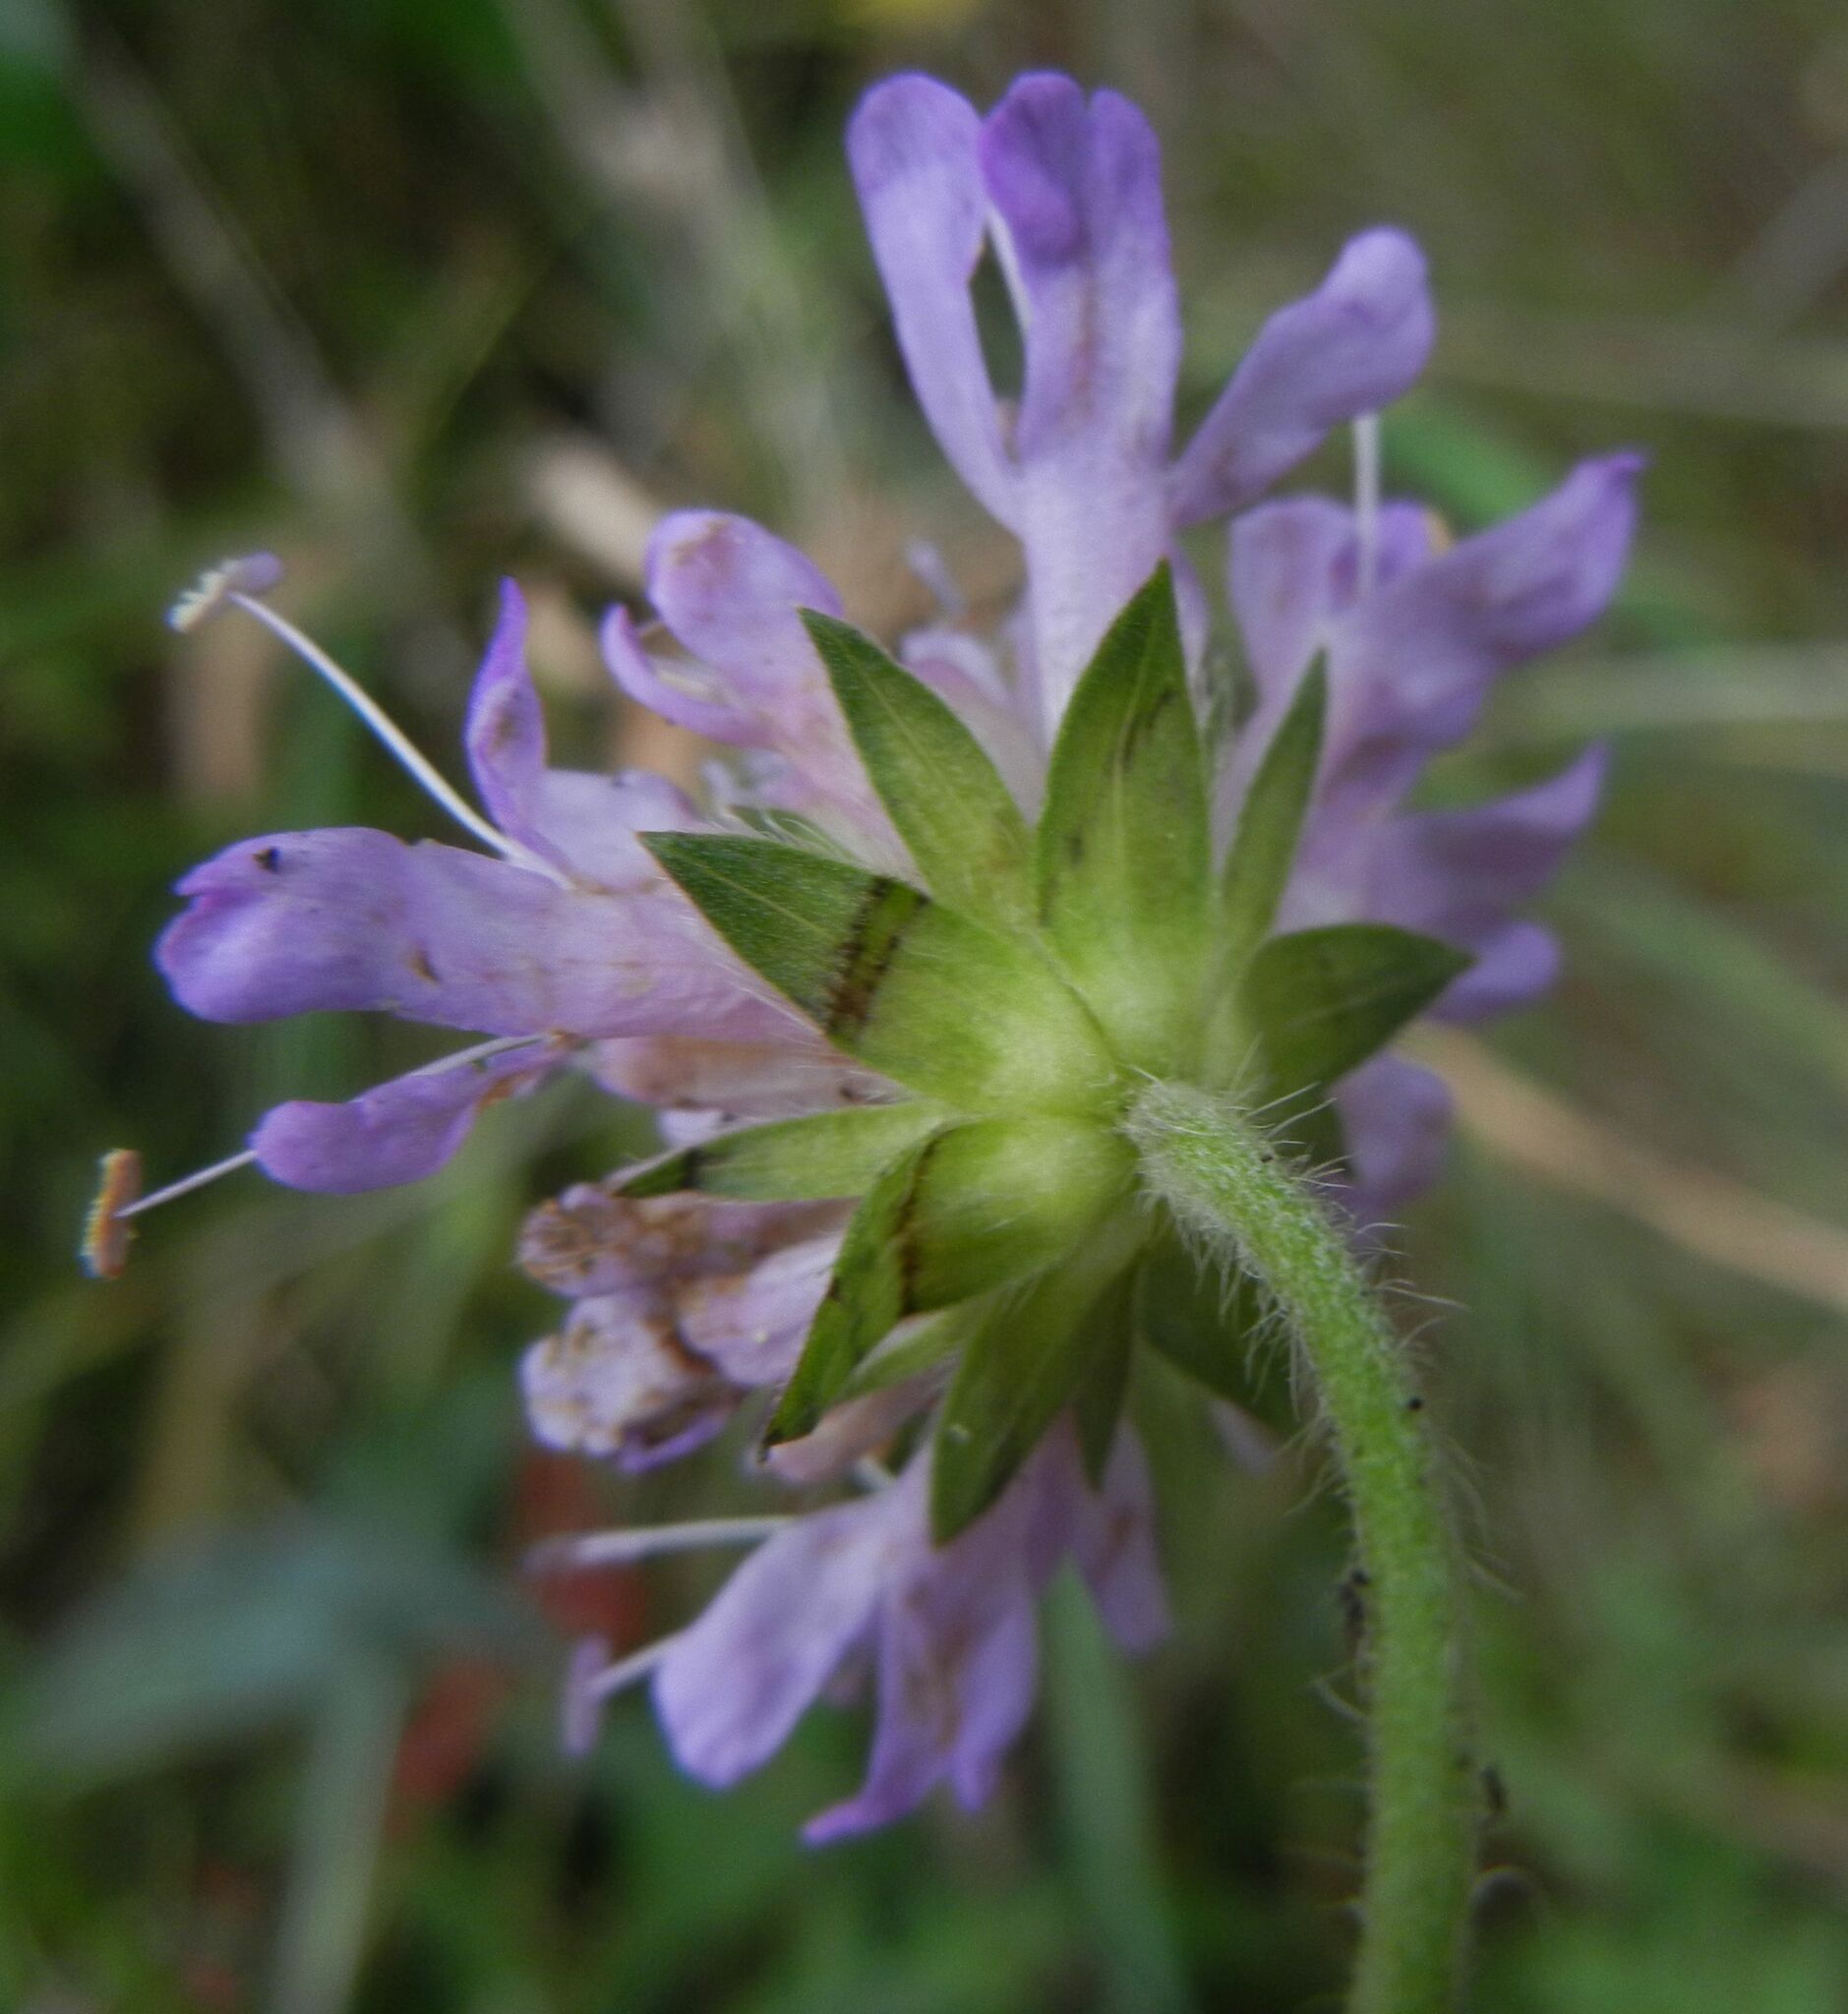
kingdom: Plantae
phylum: Tracheophyta
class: Magnoliopsida
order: Dipsacales
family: Caprifoliaceae
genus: Knautia
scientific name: Knautia arvensis
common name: Field scabiosa
